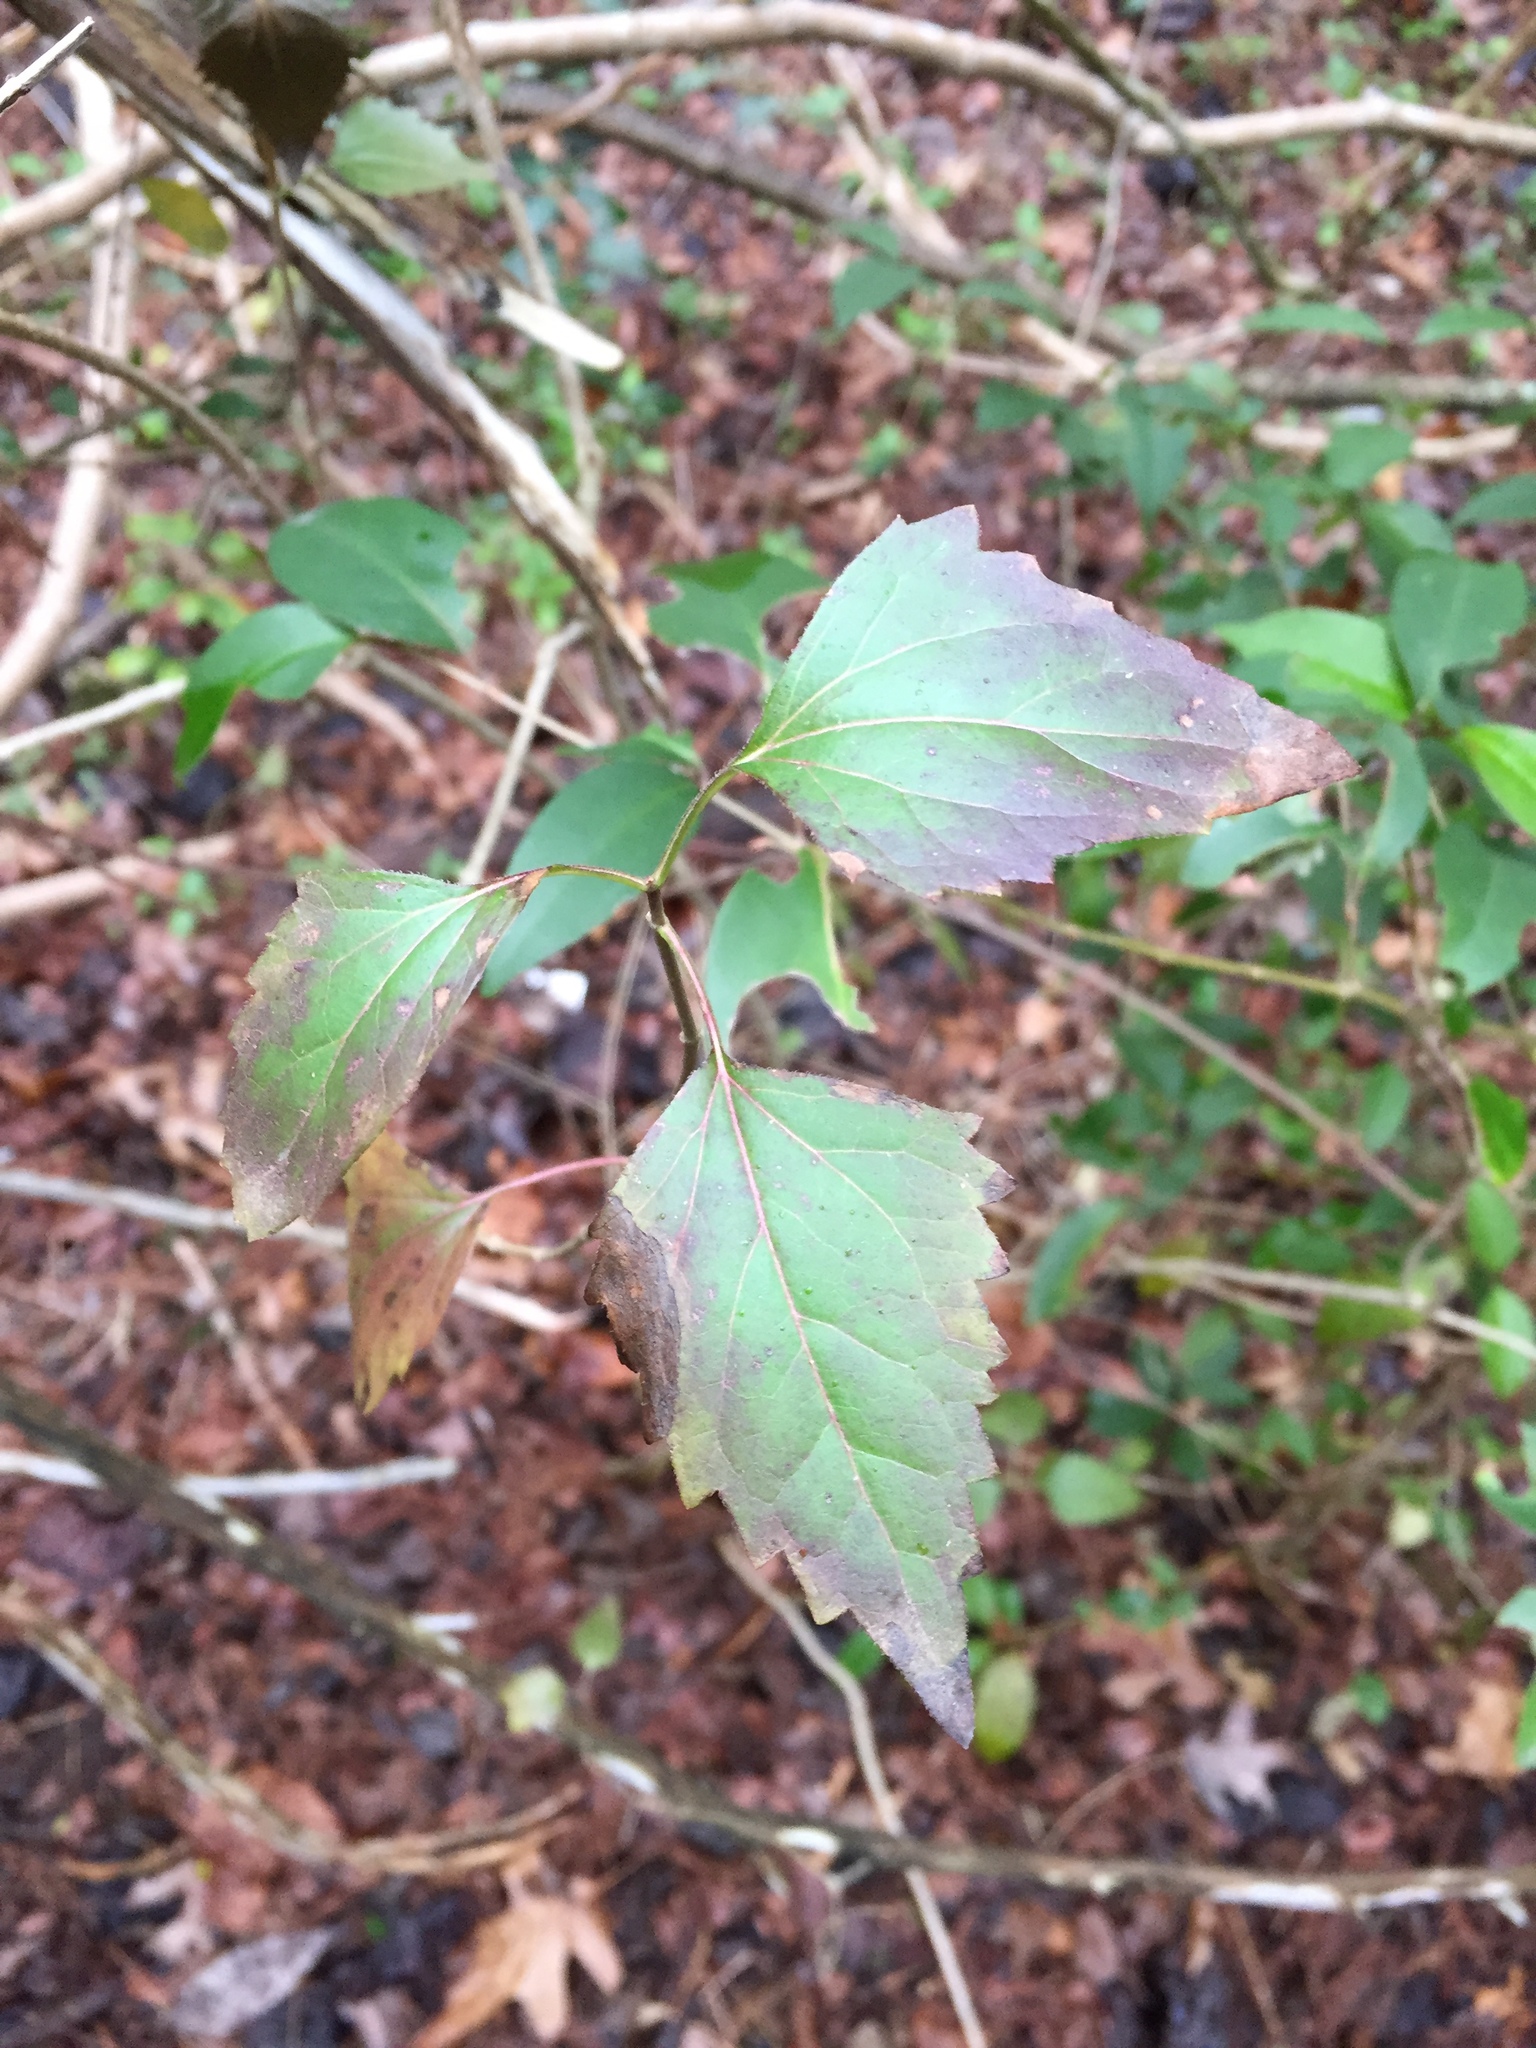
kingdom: Plantae
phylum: Tracheophyta
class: Magnoliopsida
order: Asterales
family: Asteraceae
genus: Ageratina
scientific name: Ageratina havanensis
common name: Havana snakeroot
